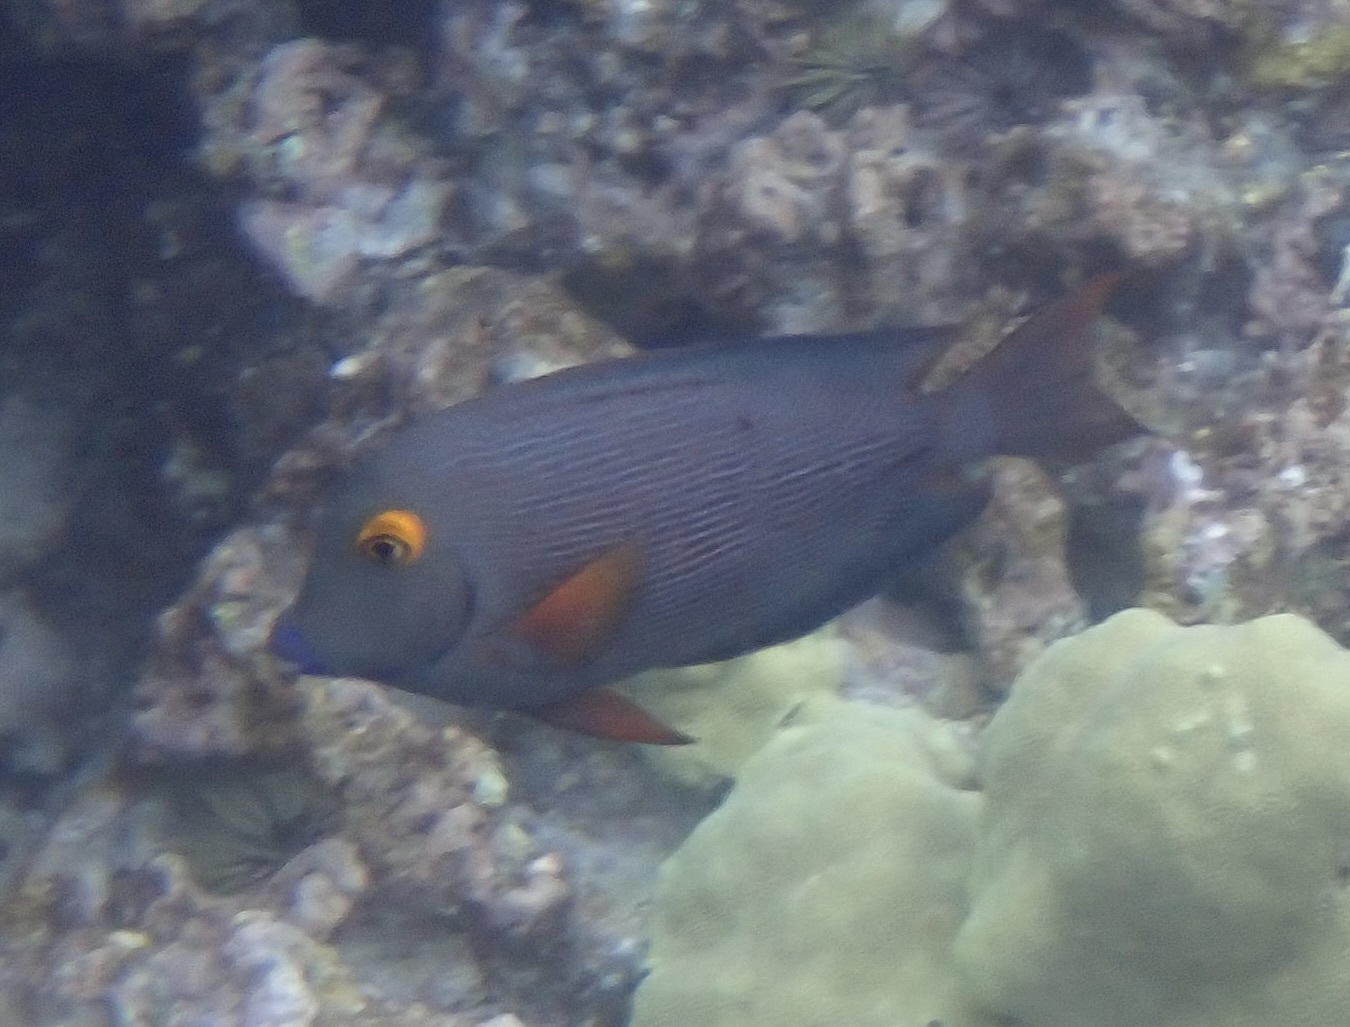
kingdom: Animalia
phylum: Chordata
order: Perciformes
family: Acanthuridae
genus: Ctenochaetus
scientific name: Ctenochaetus strigosus
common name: Bristletoothed surgeonfish
